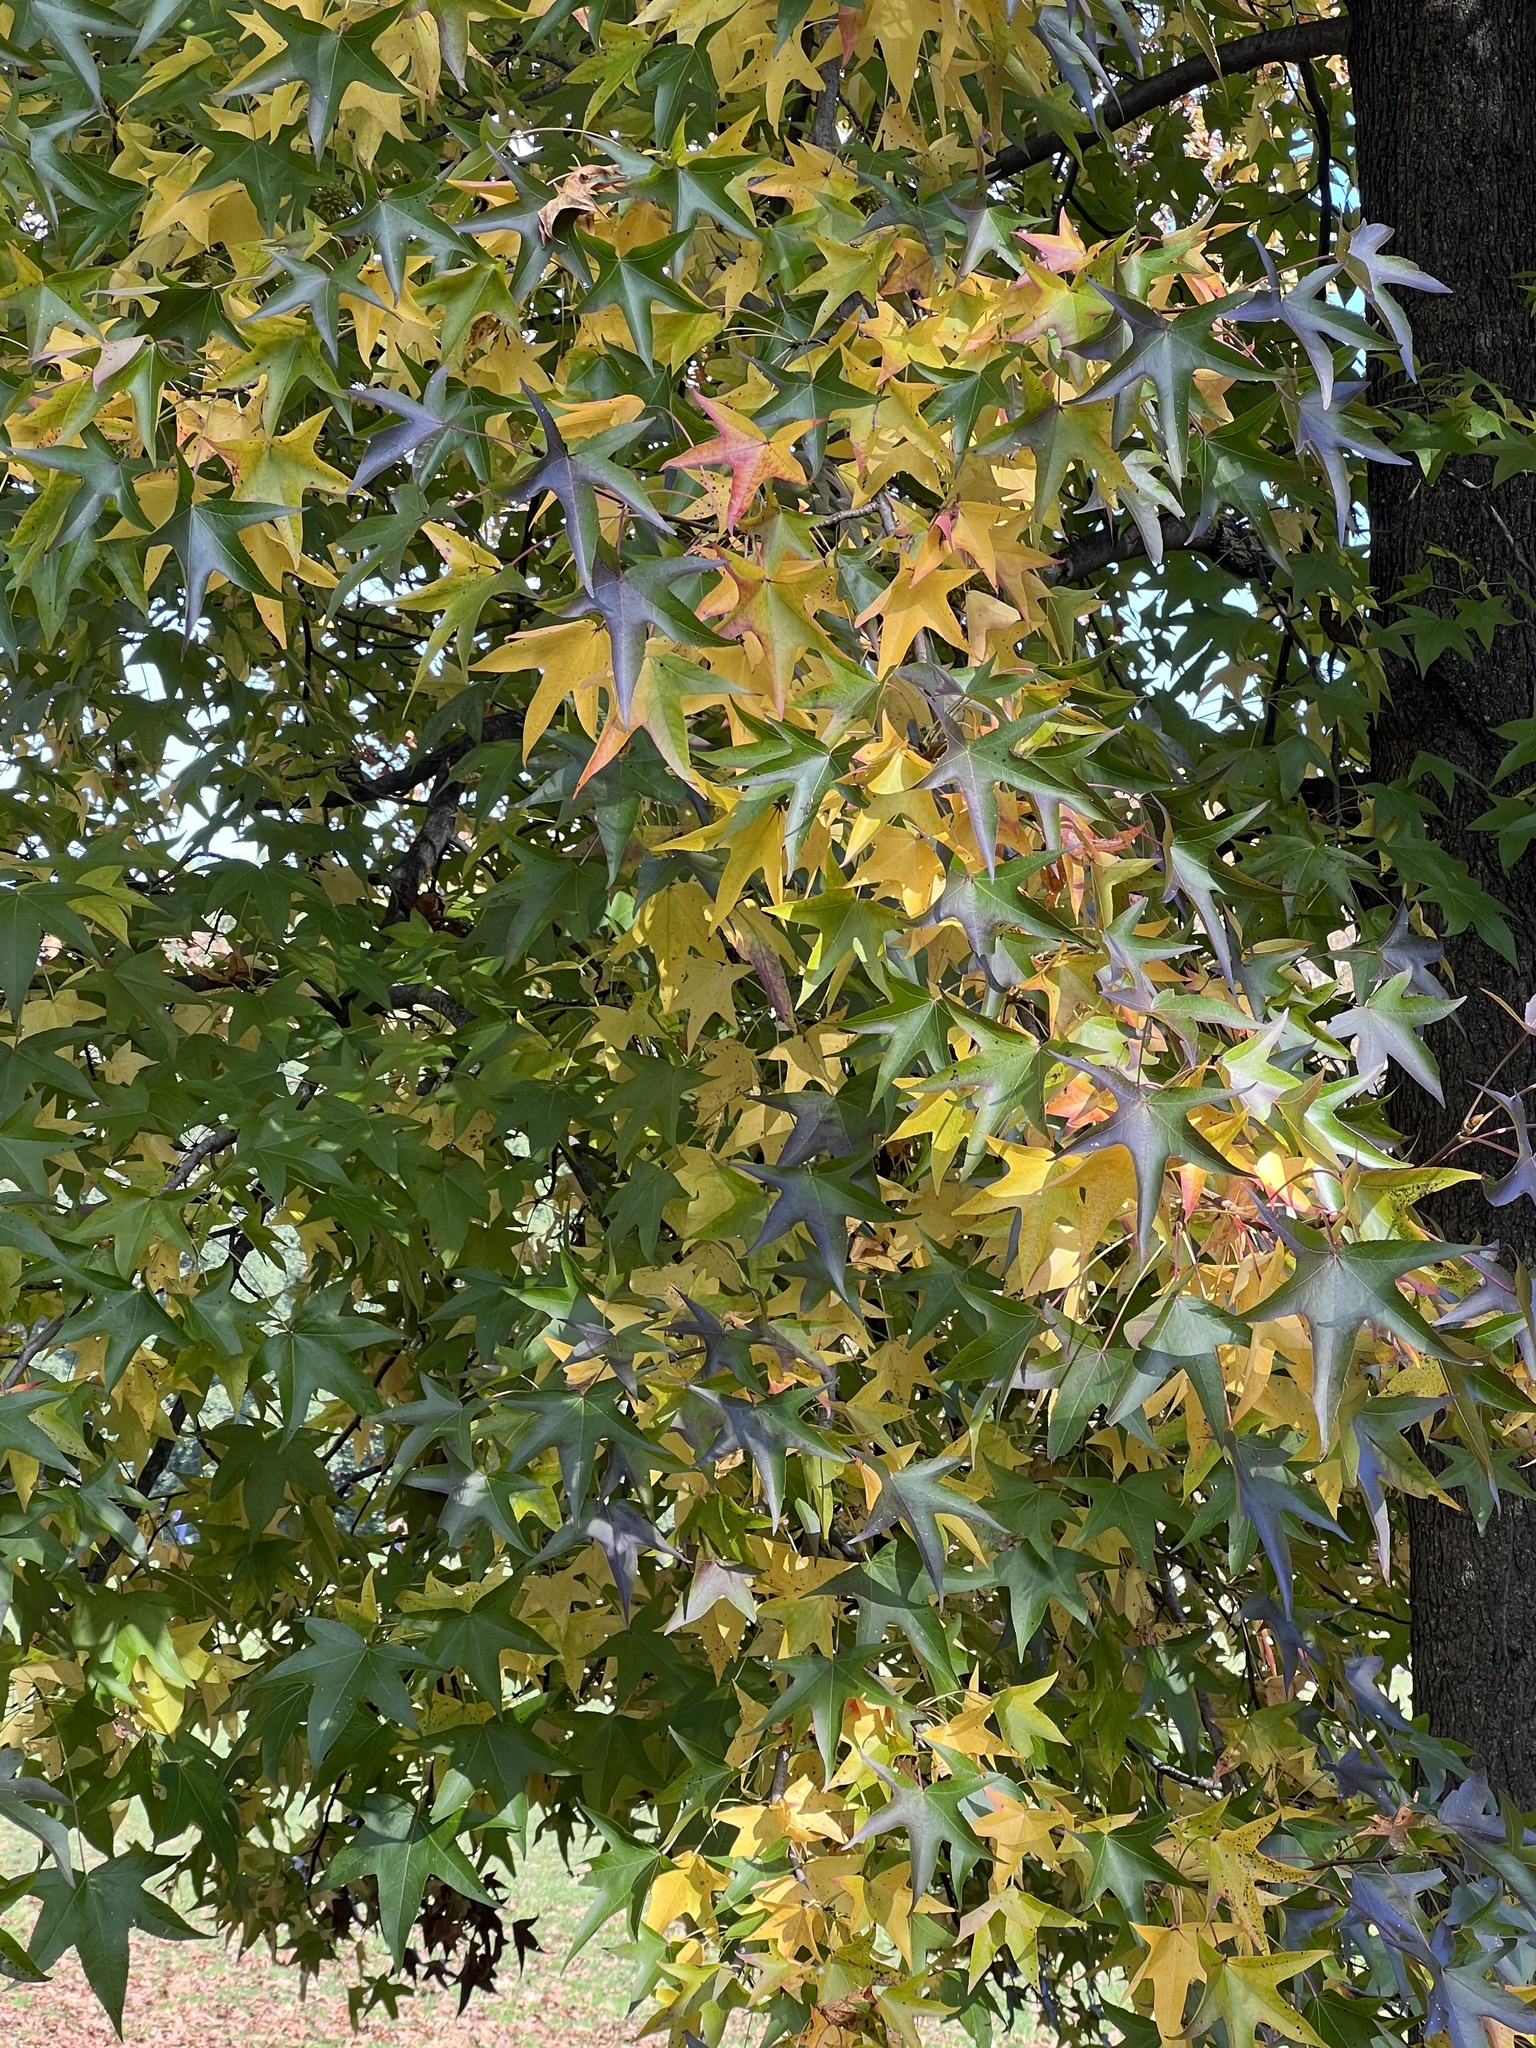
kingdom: Plantae
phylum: Tracheophyta
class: Magnoliopsida
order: Saxifragales
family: Altingiaceae
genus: Liquidambar
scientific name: Liquidambar styraciflua
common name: Sweet gum
